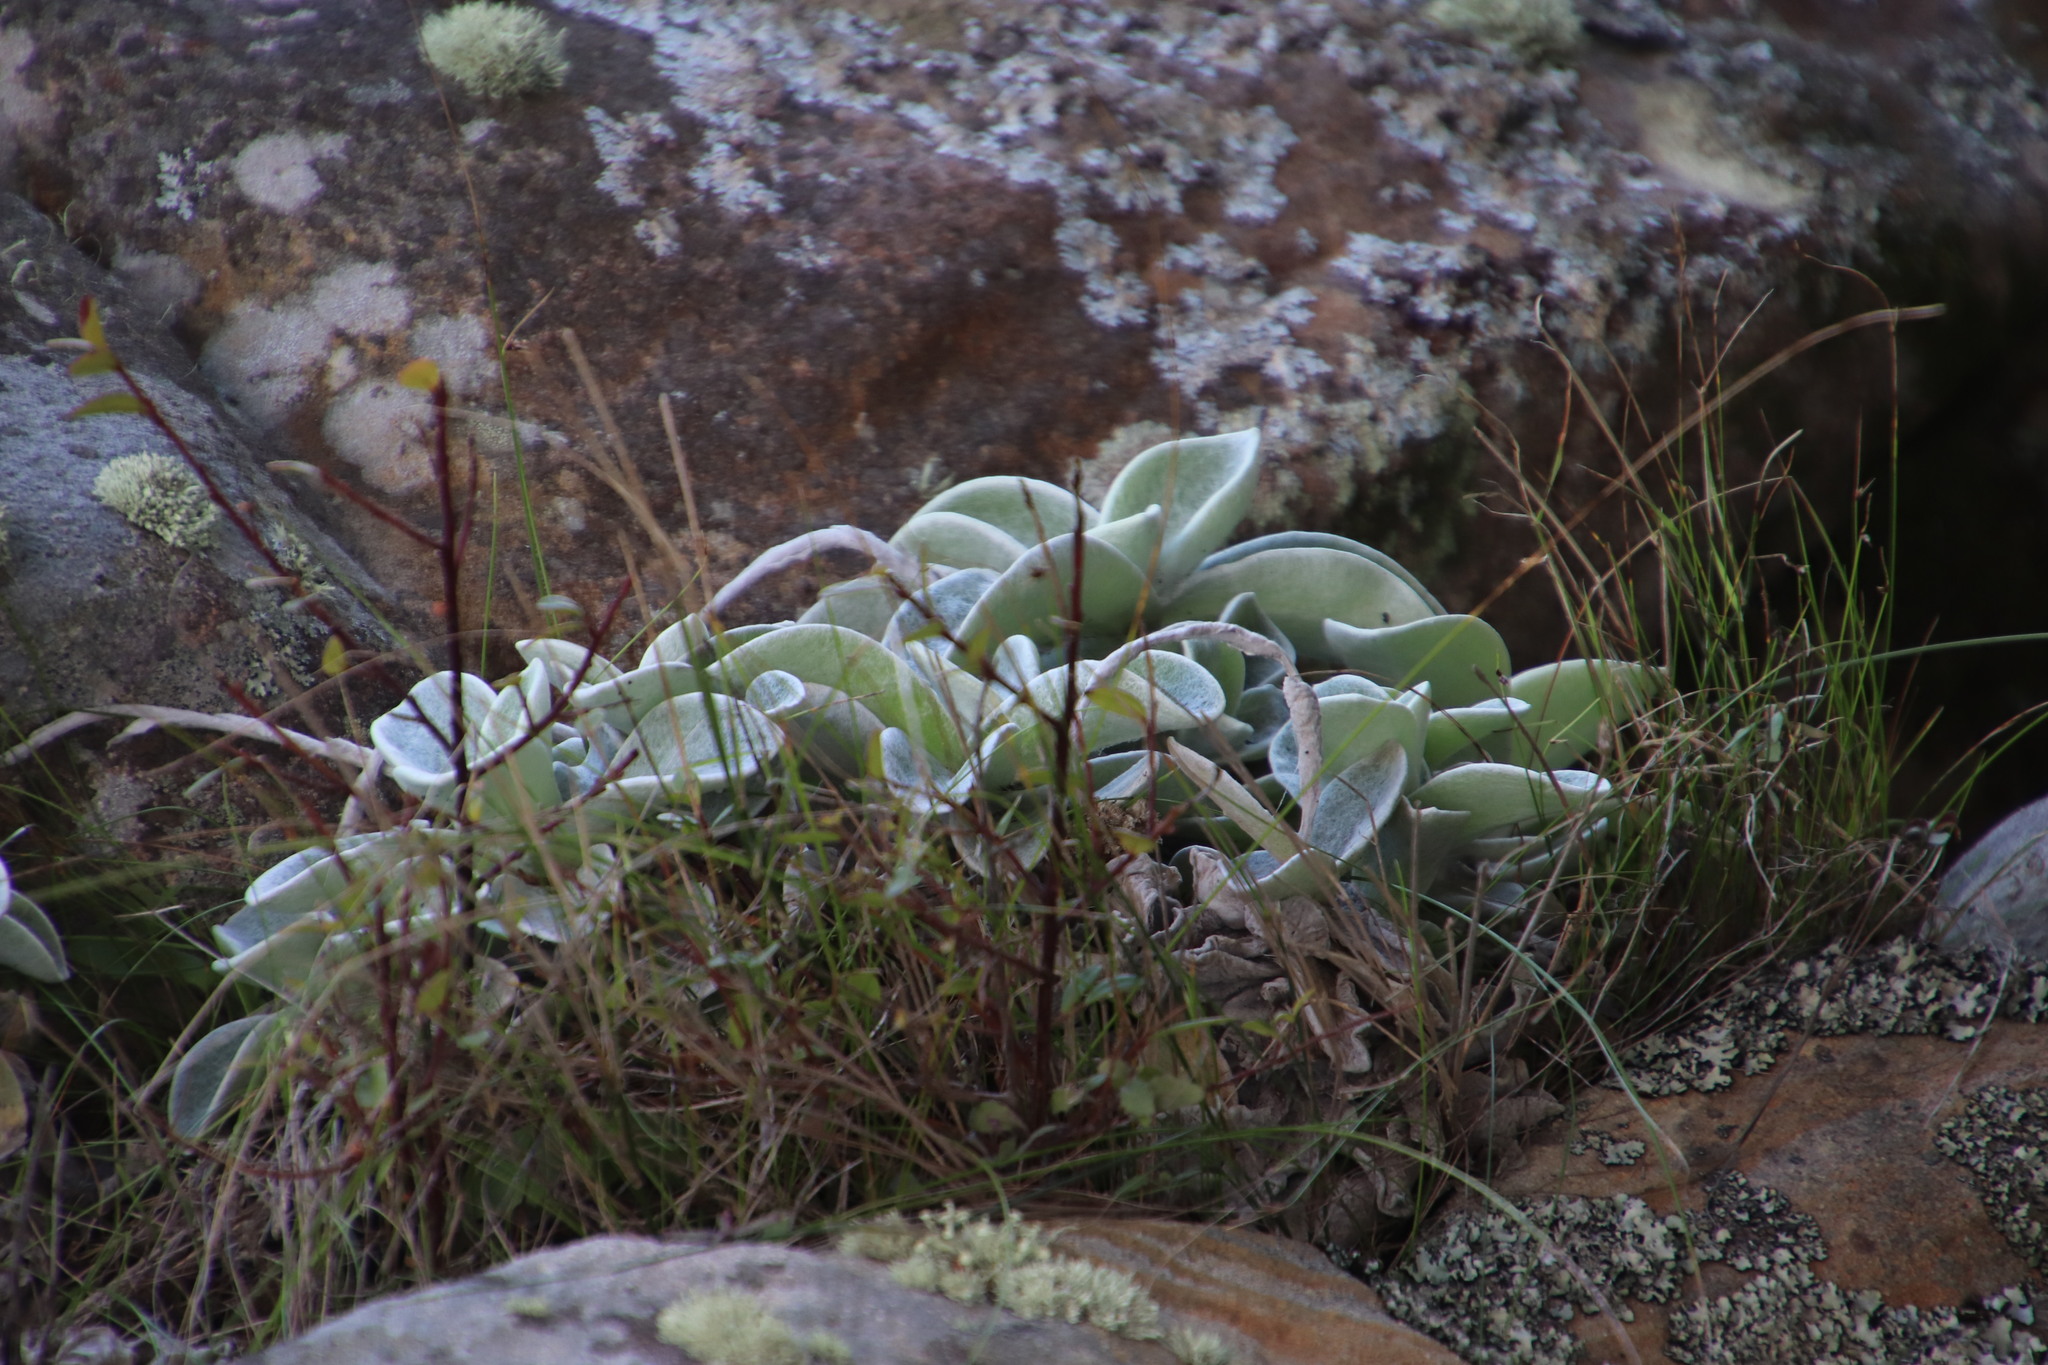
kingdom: Plantae
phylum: Tracheophyta
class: Magnoliopsida
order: Asterales
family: Asteraceae
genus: Helichrysum
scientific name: Helichrysum grandiflorum
